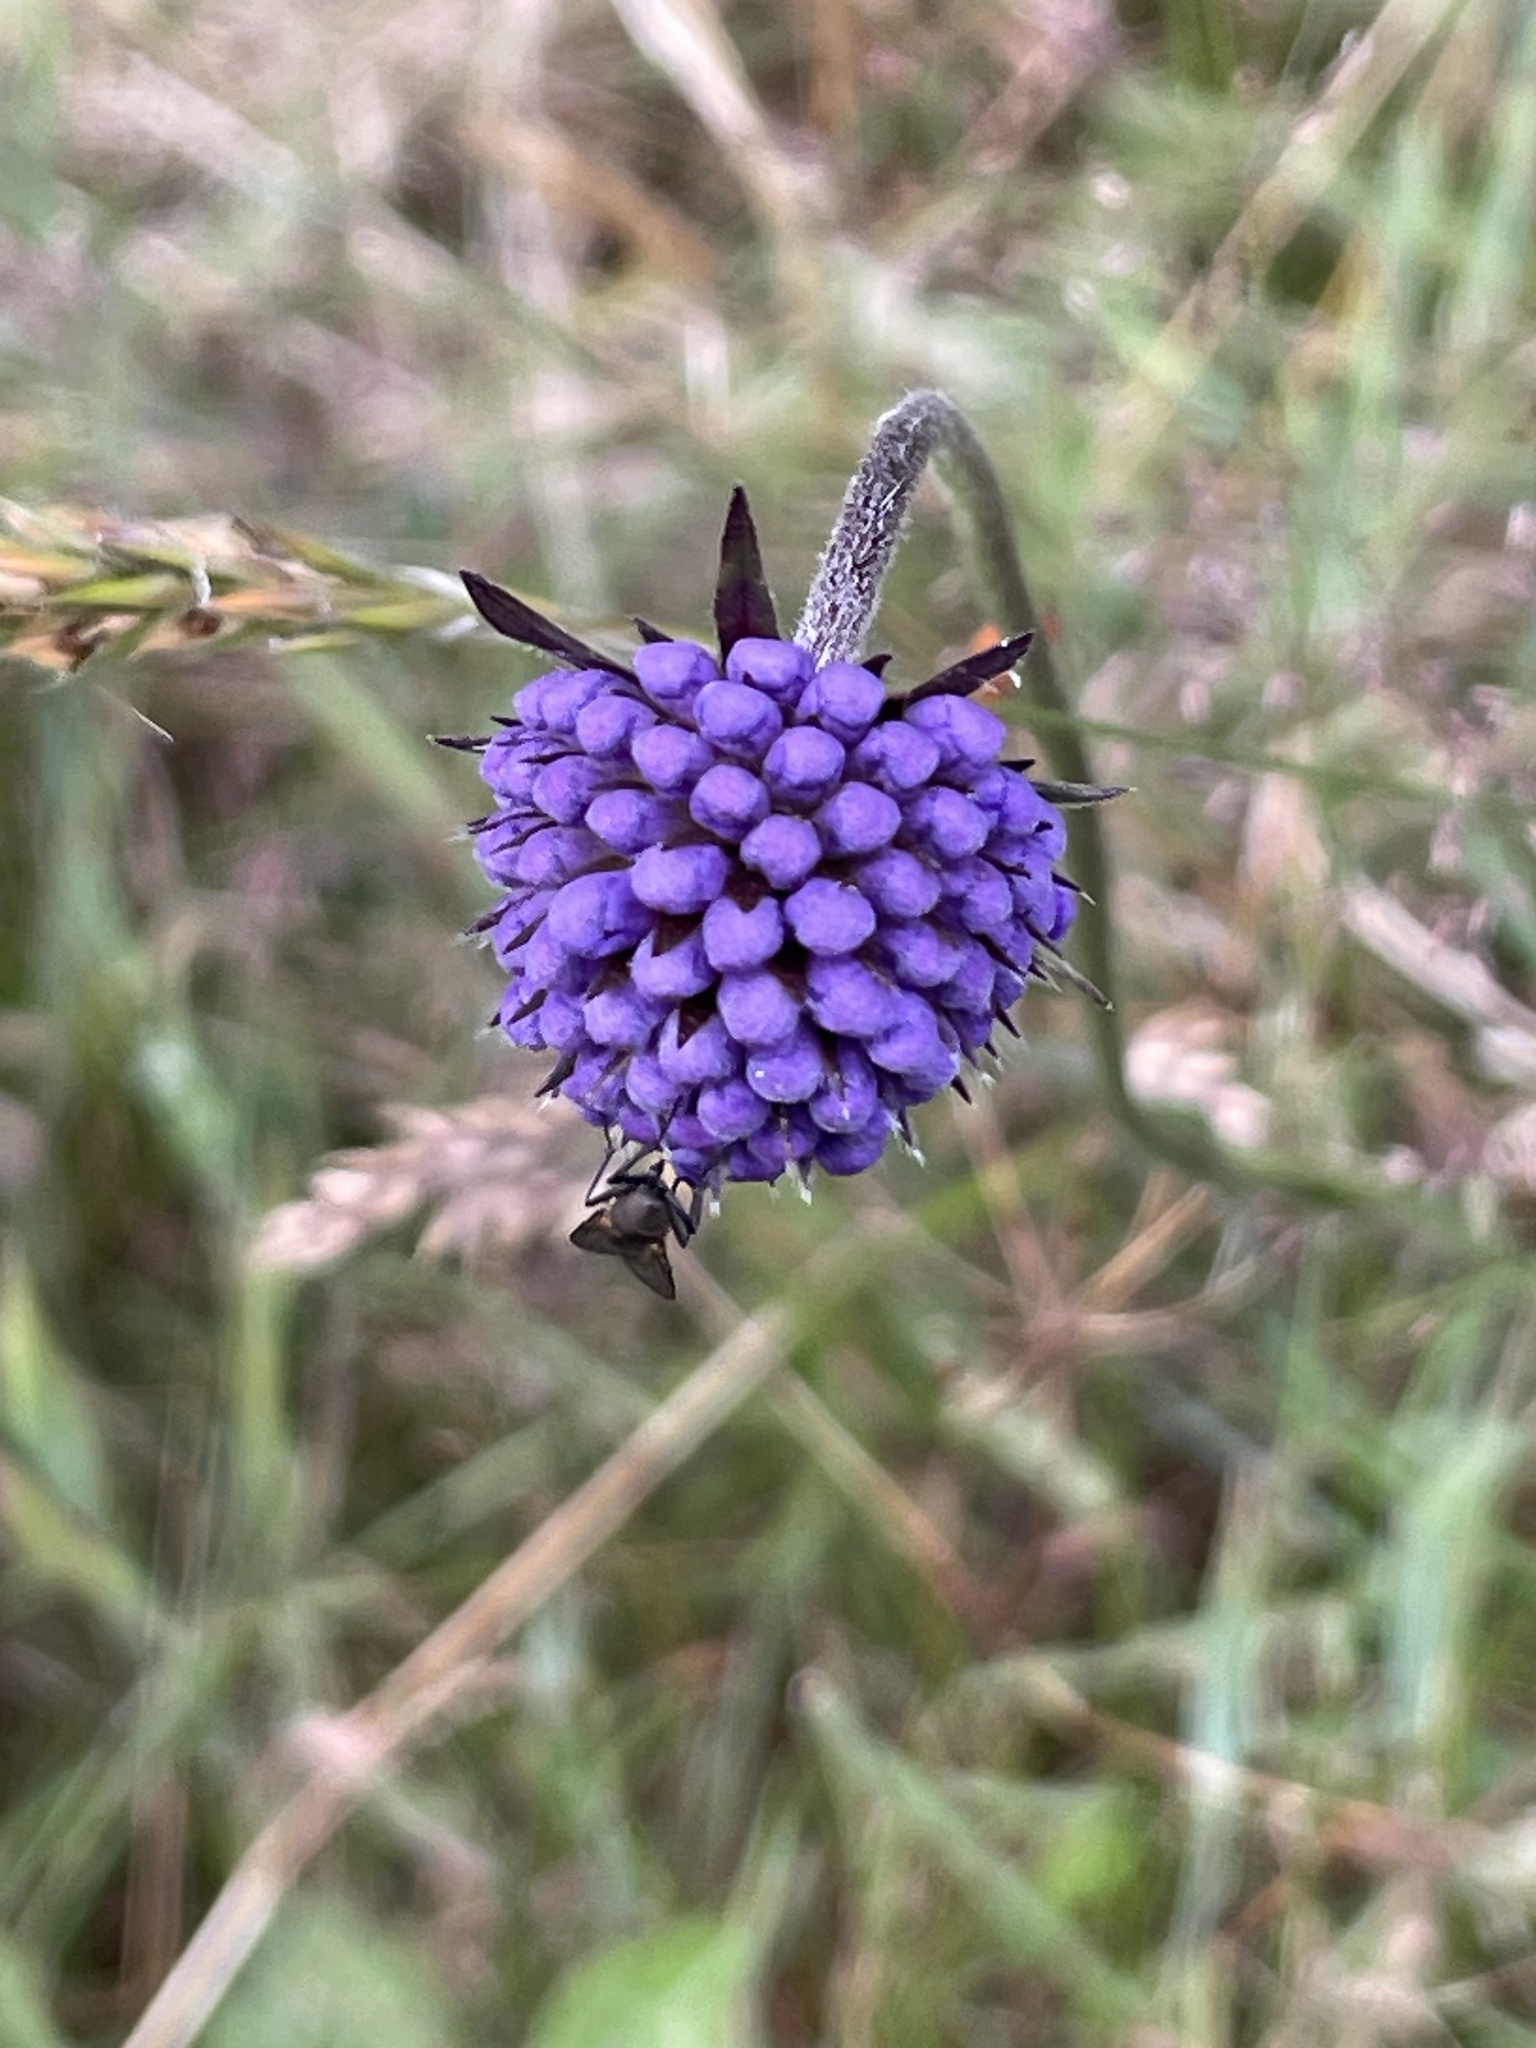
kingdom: Plantae
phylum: Tracheophyta
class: Magnoliopsida
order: Dipsacales
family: Caprifoliaceae
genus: Succisa
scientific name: Succisa pratensis
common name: Devil's-bit
